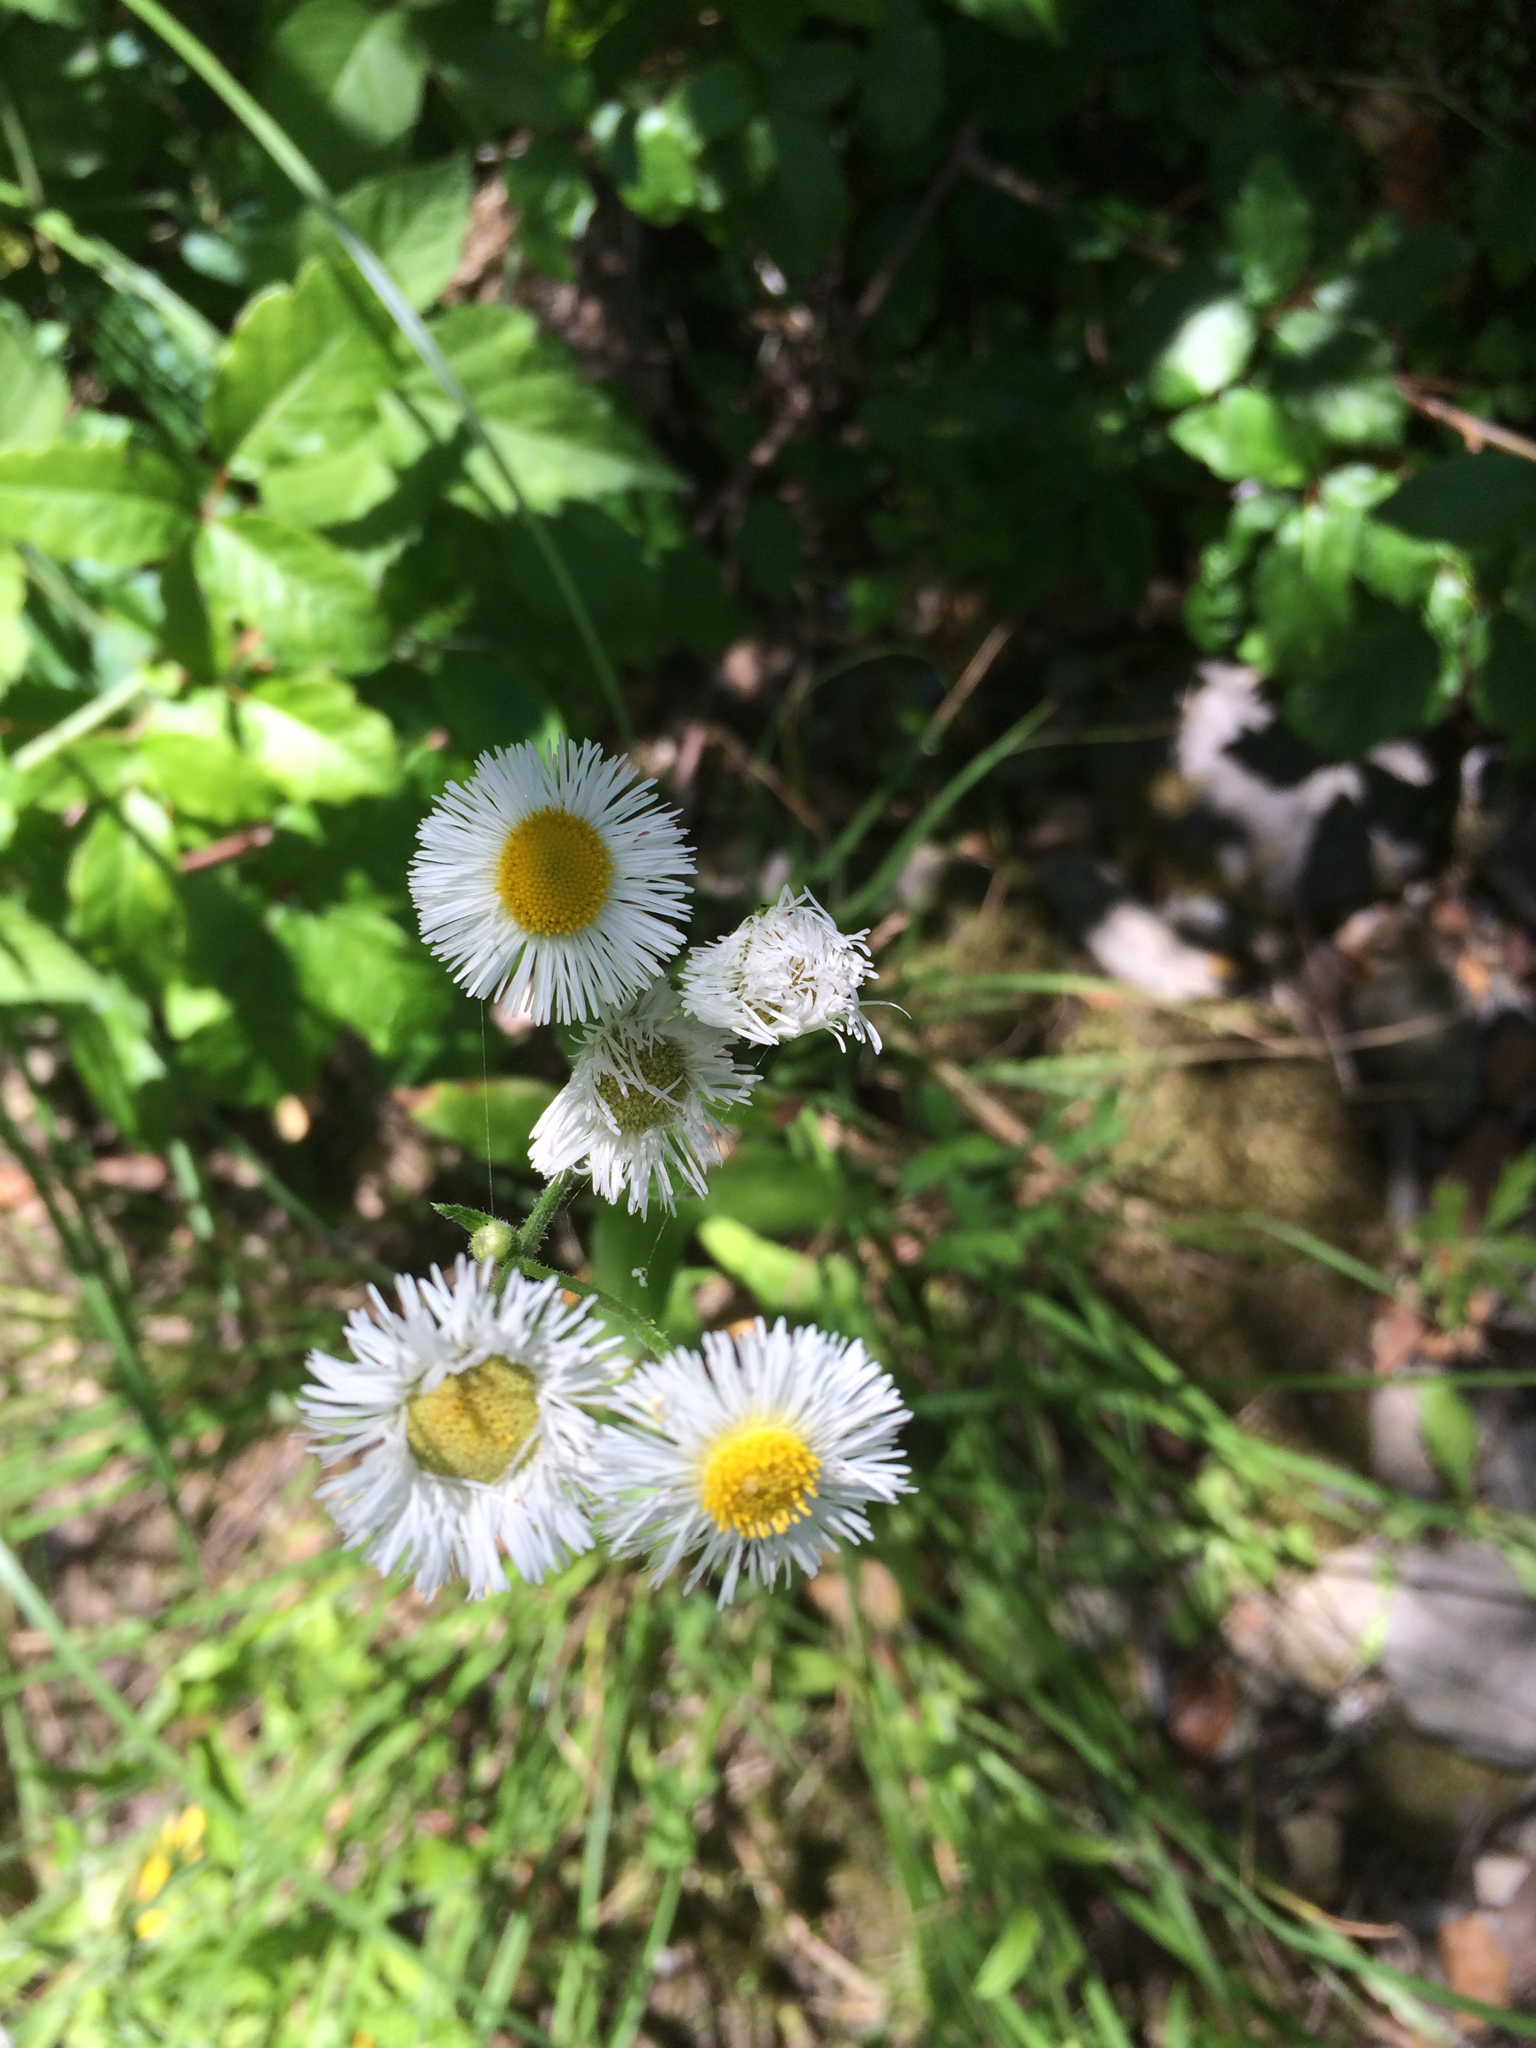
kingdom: Plantae
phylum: Tracheophyta
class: Magnoliopsida
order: Asterales
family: Asteraceae
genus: Erigeron
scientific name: Erigeron philadelphicus
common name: Robin's-plantain
